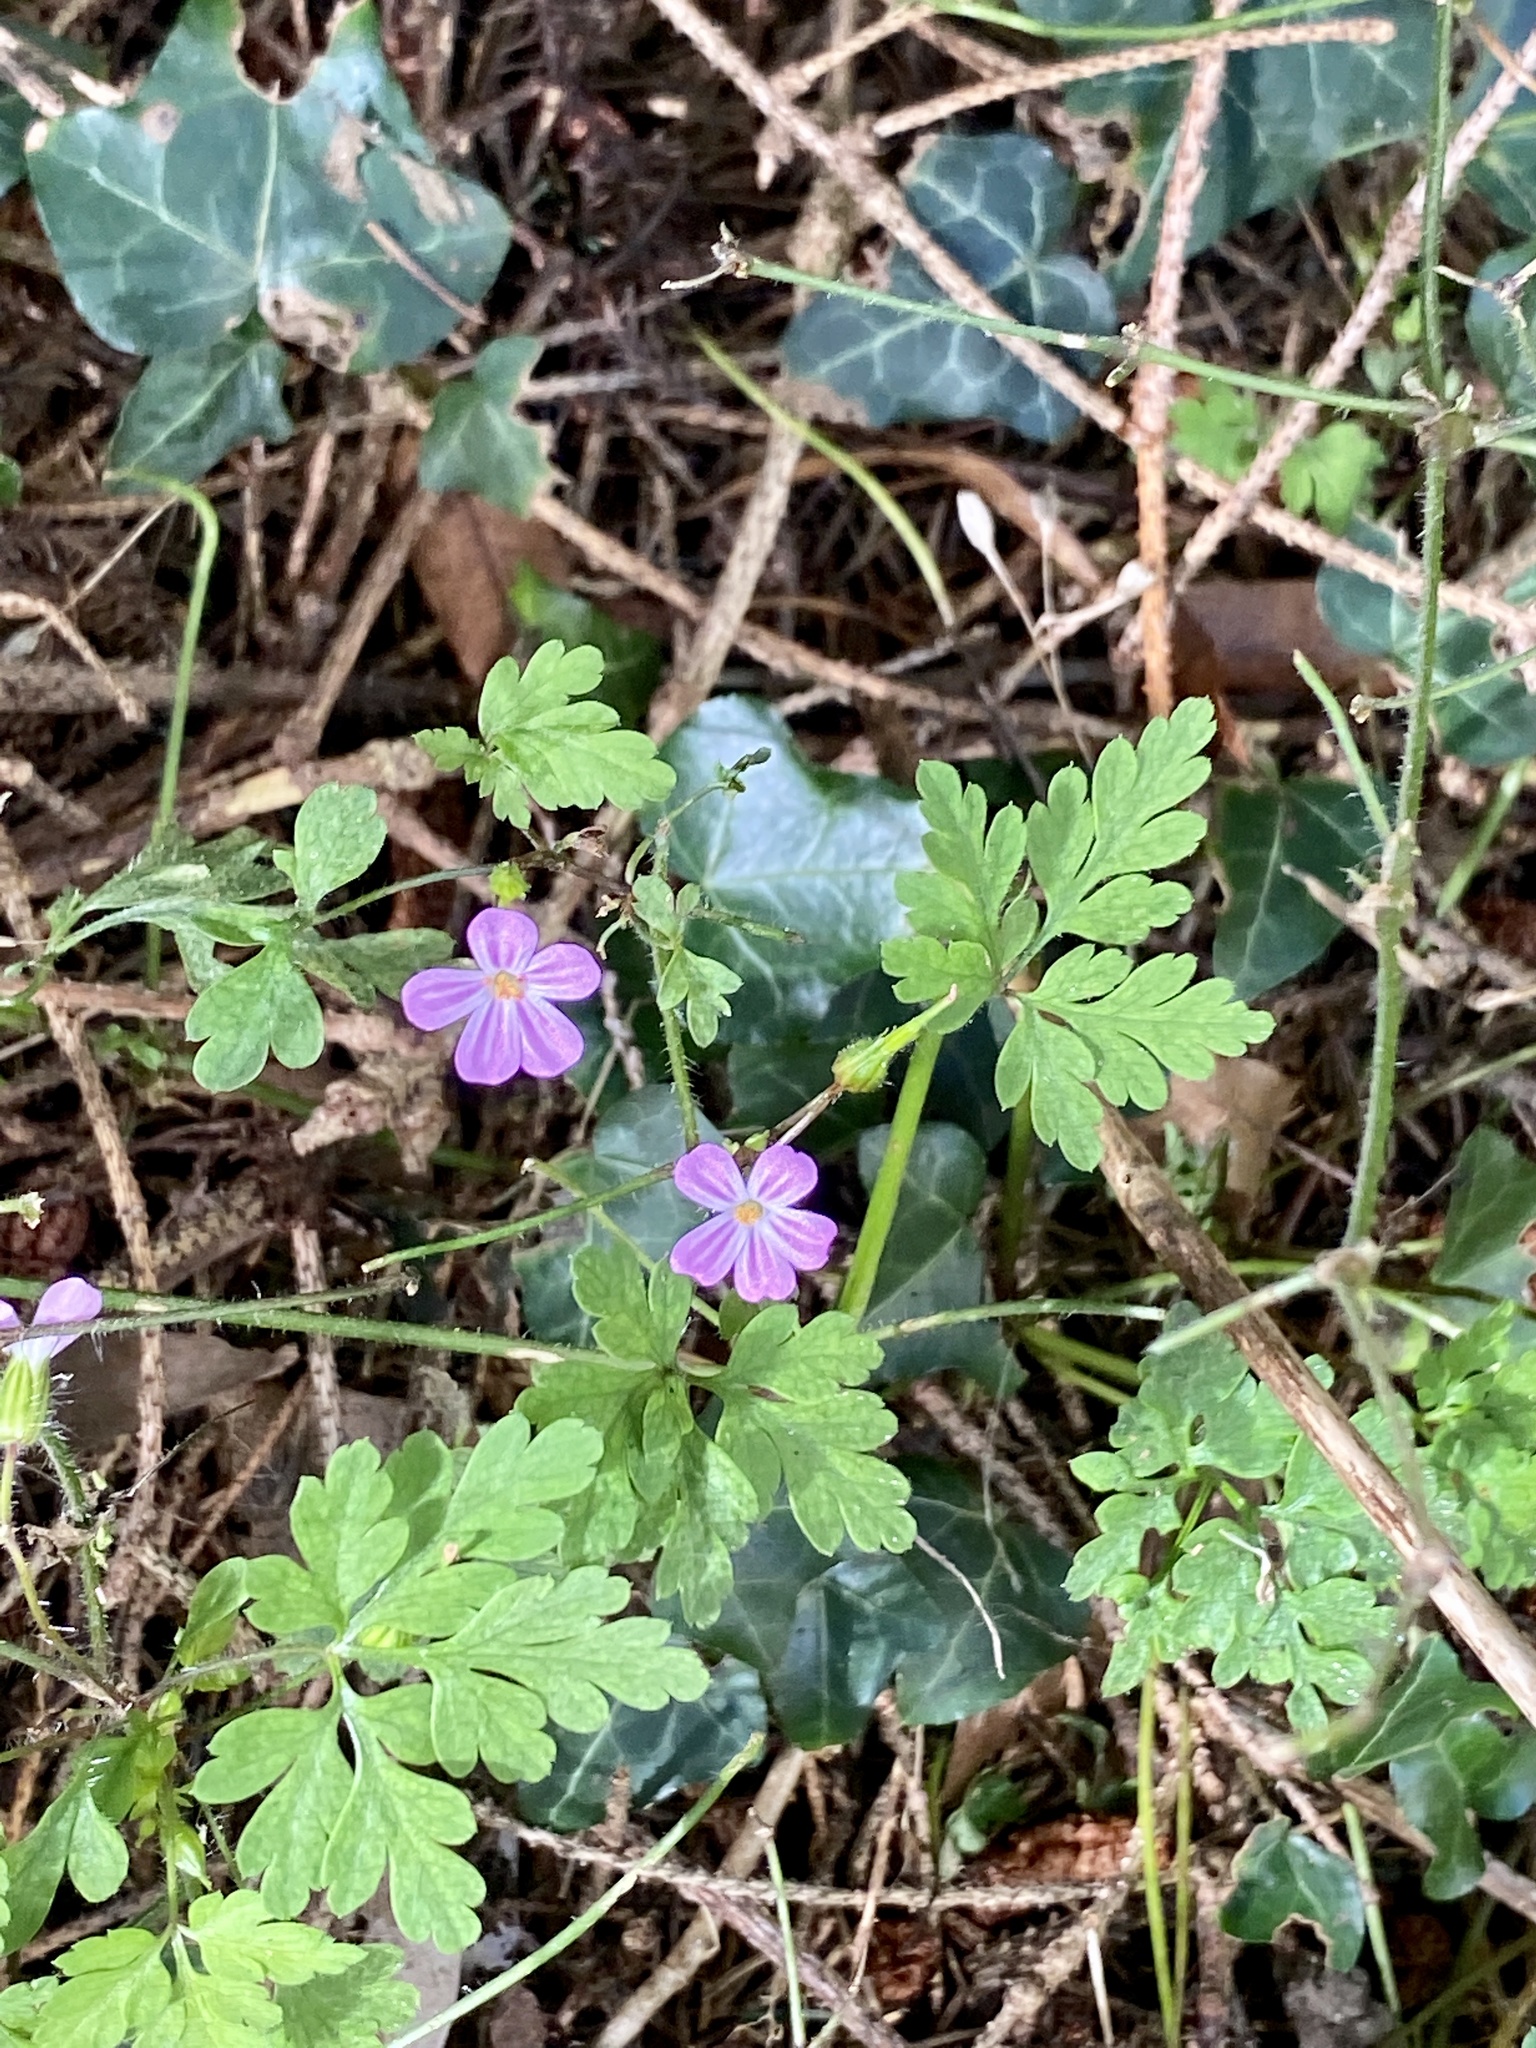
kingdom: Plantae
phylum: Tracheophyta
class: Magnoliopsida
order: Geraniales
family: Geraniaceae
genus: Geranium
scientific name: Geranium robertianum
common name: Herb-robert
